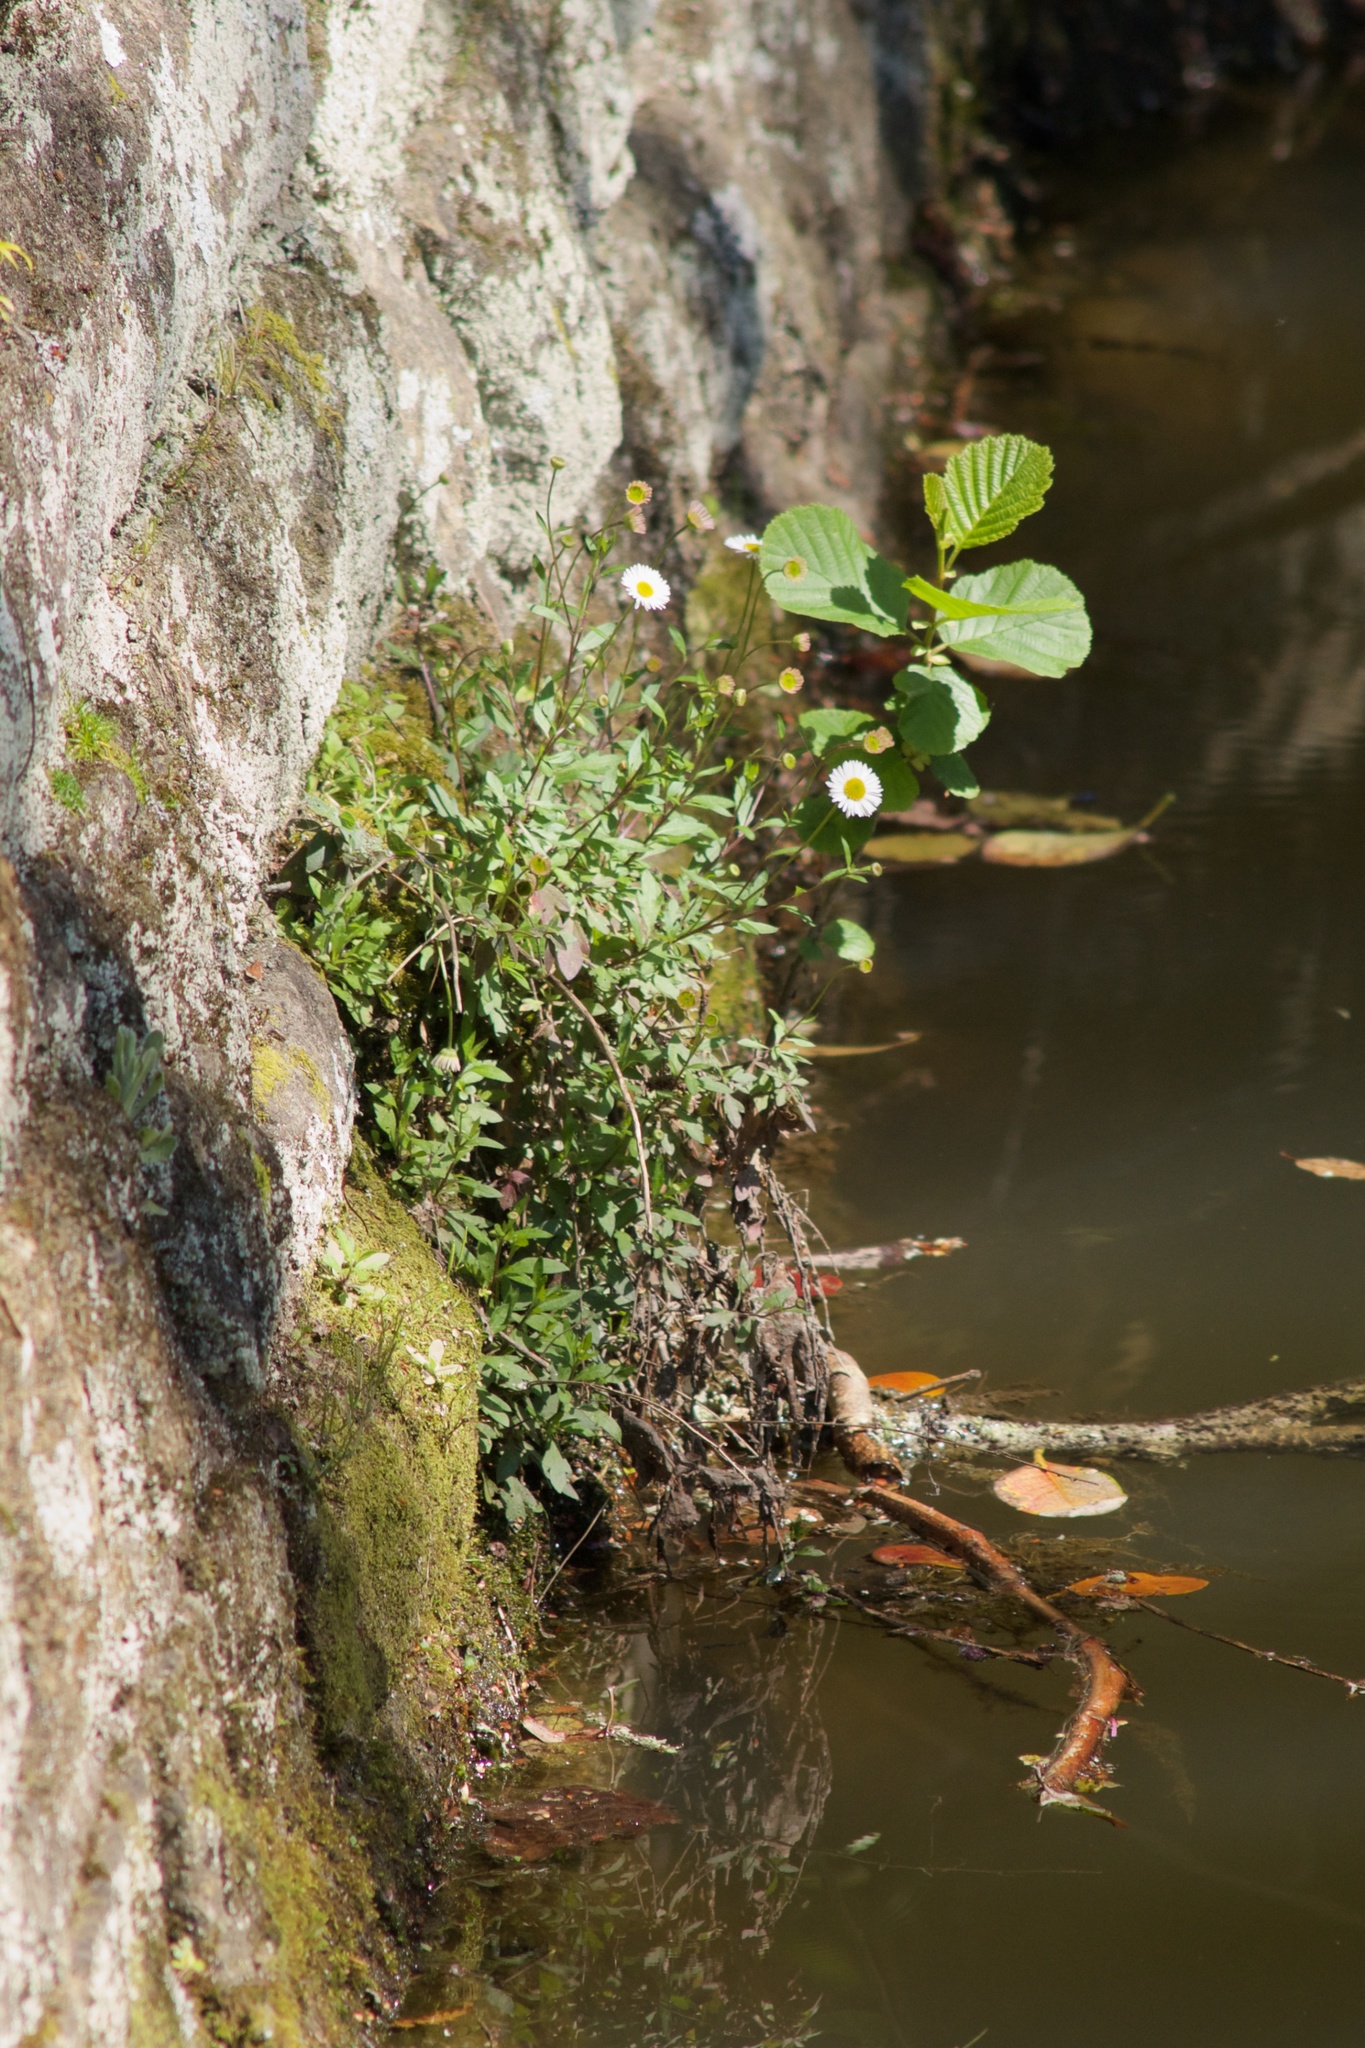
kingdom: Plantae
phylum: Tracheophyta
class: Magnoliopsida
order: Asterales
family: Asteraceae
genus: Erigeron
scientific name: Erigeron karvinskianus
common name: Mexican fleabane
